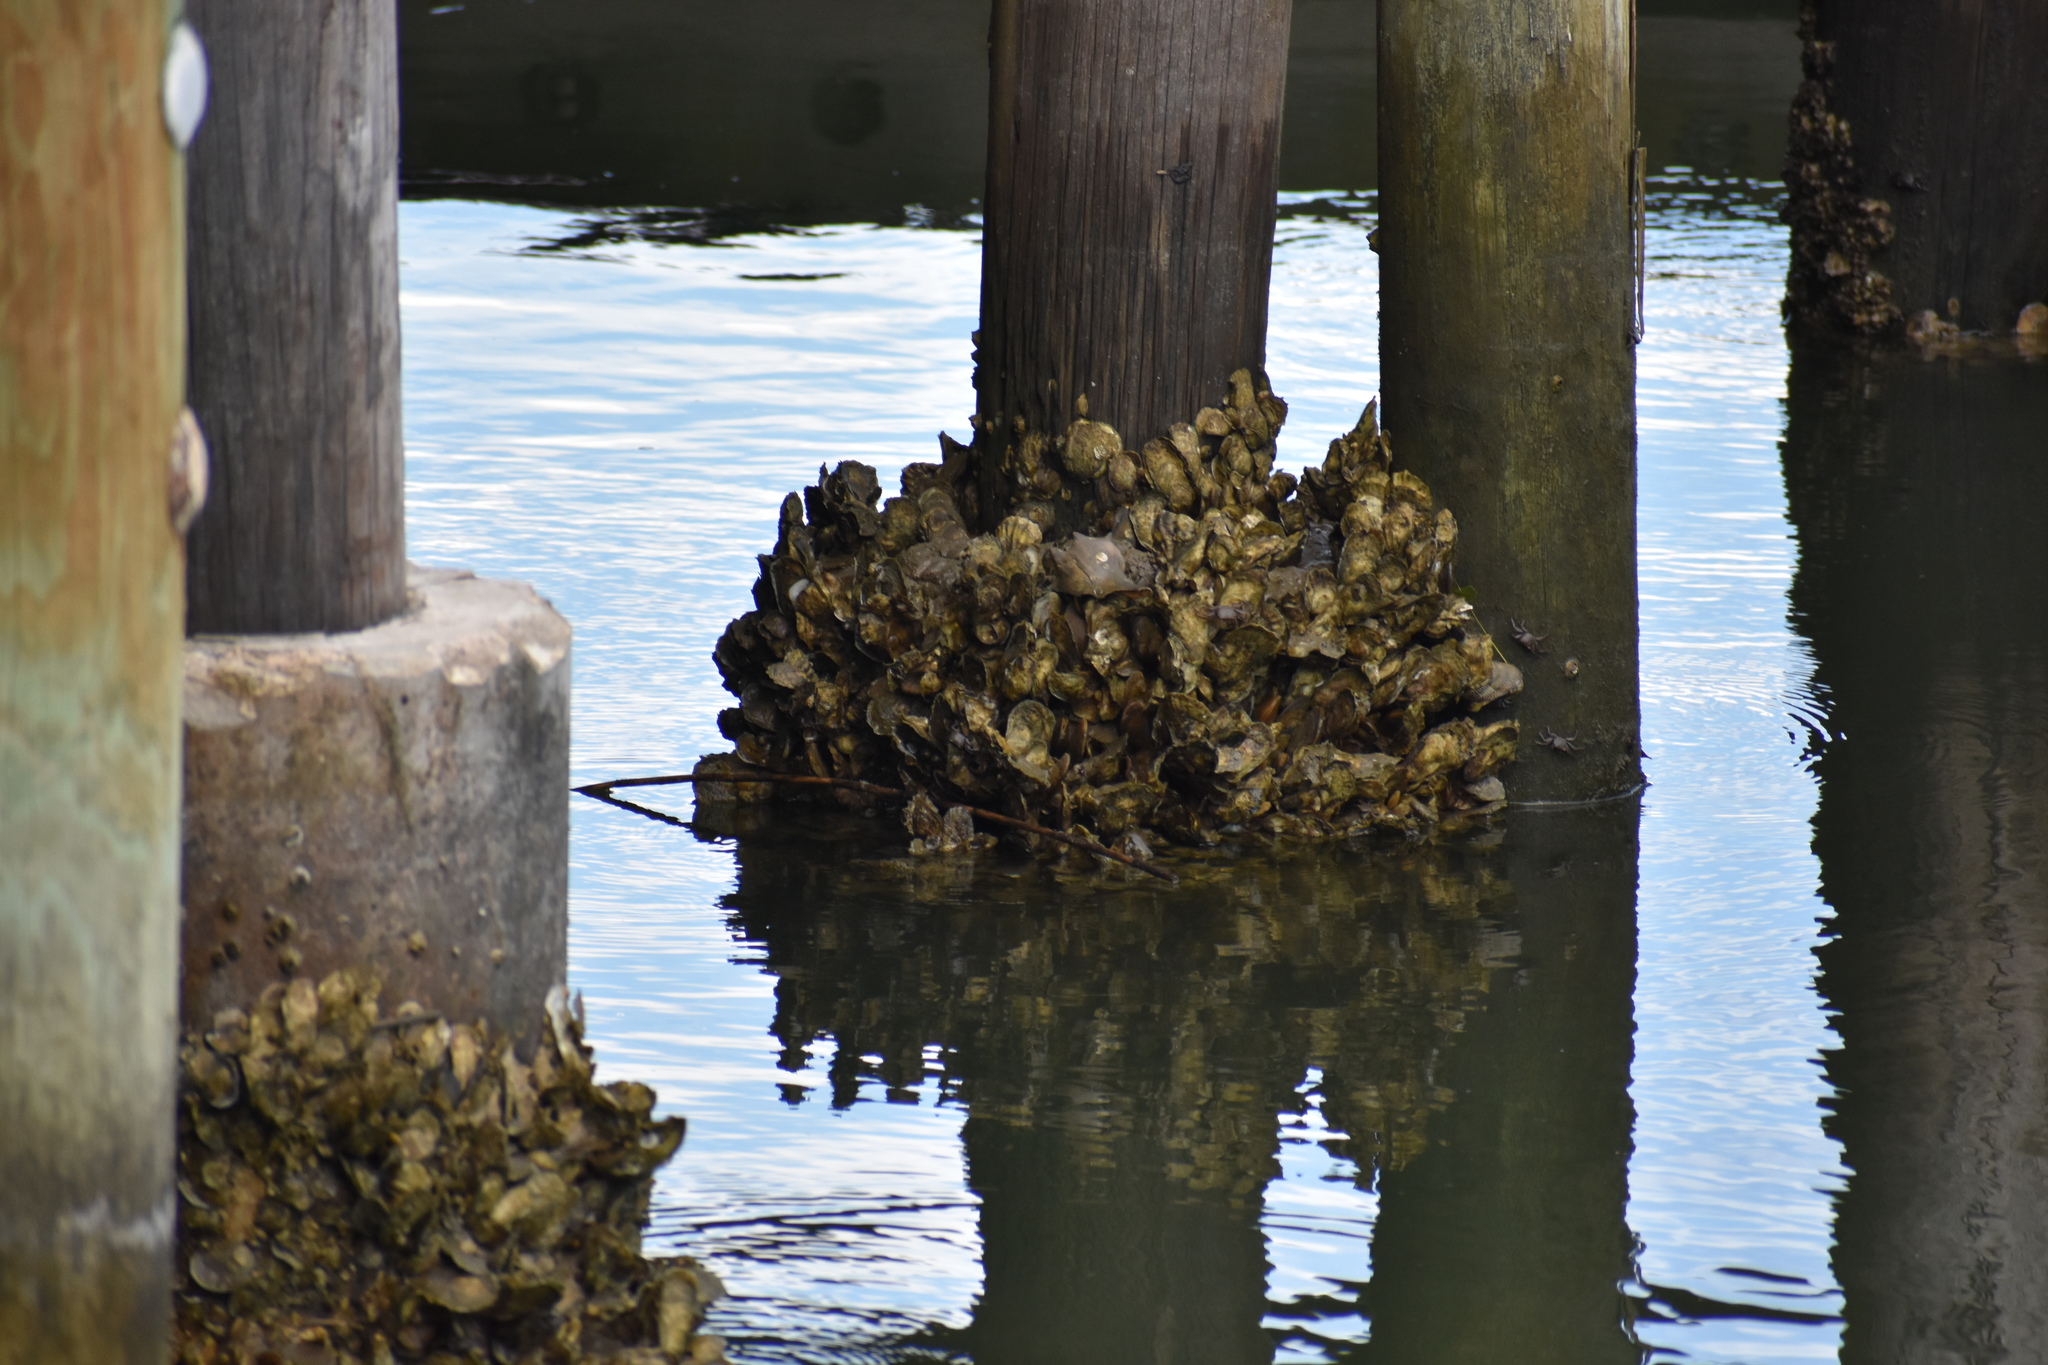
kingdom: Animalia
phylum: Mollusca
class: Bivalvia
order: Ostreida
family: Ostreidae
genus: Crassostrea
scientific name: Crassostrea virginica
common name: American oyster
